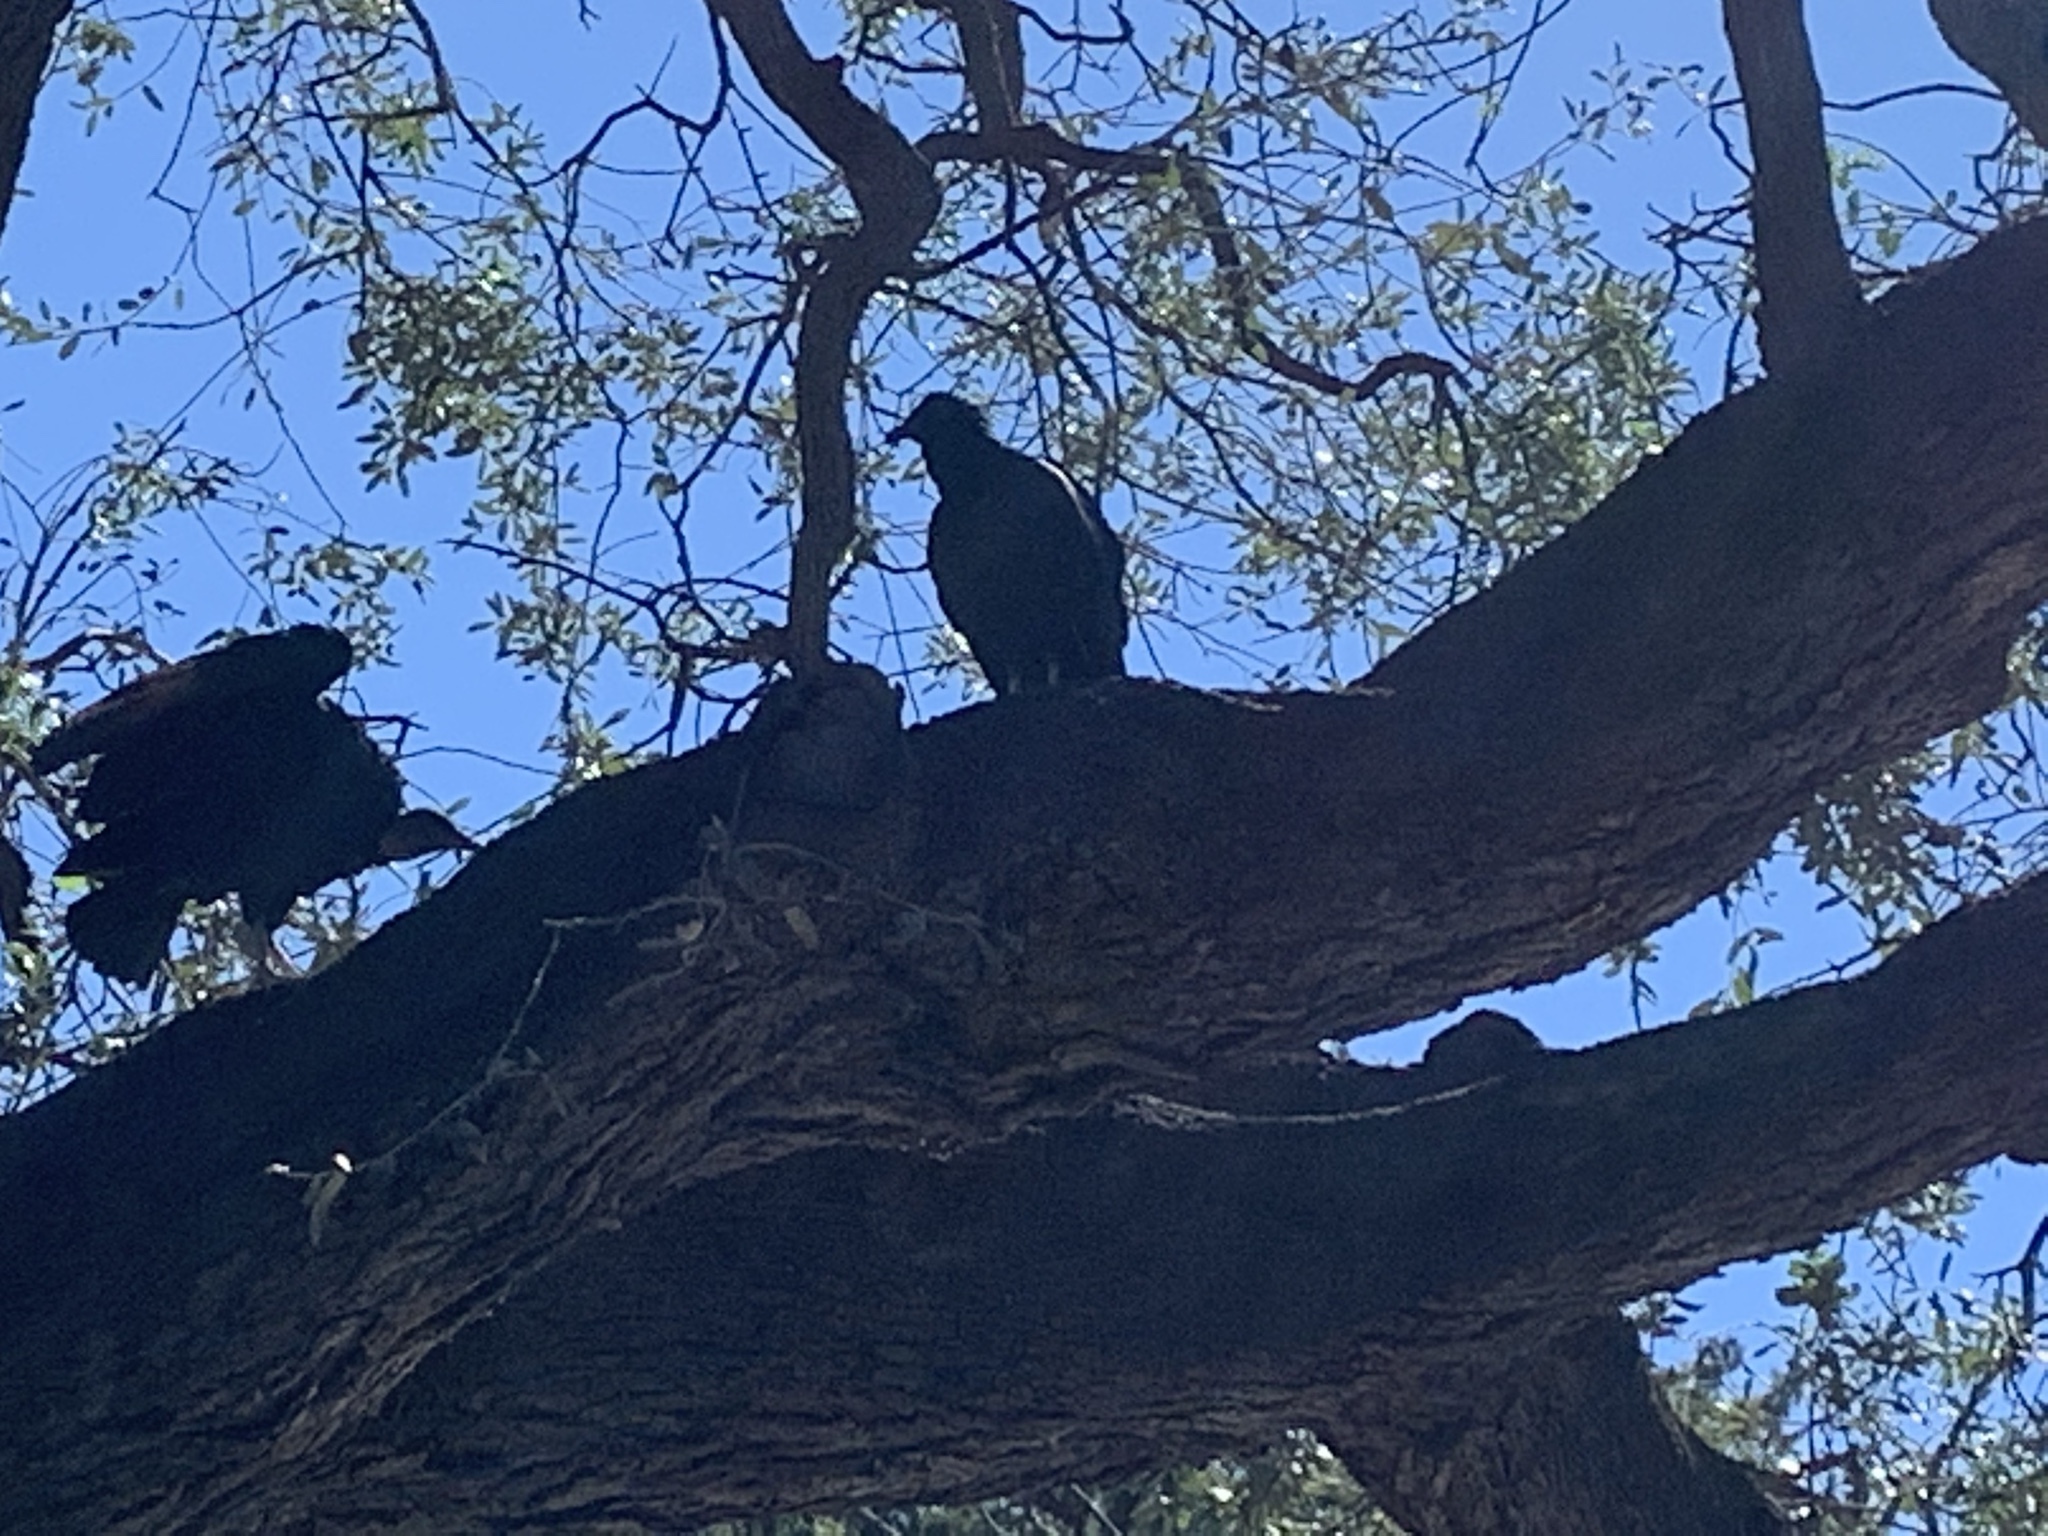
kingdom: Animalia
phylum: Chordata
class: Aves
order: Accipitriformes
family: Cathartidae
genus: Coragyps
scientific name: Coragyps atratus
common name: Black vulture
